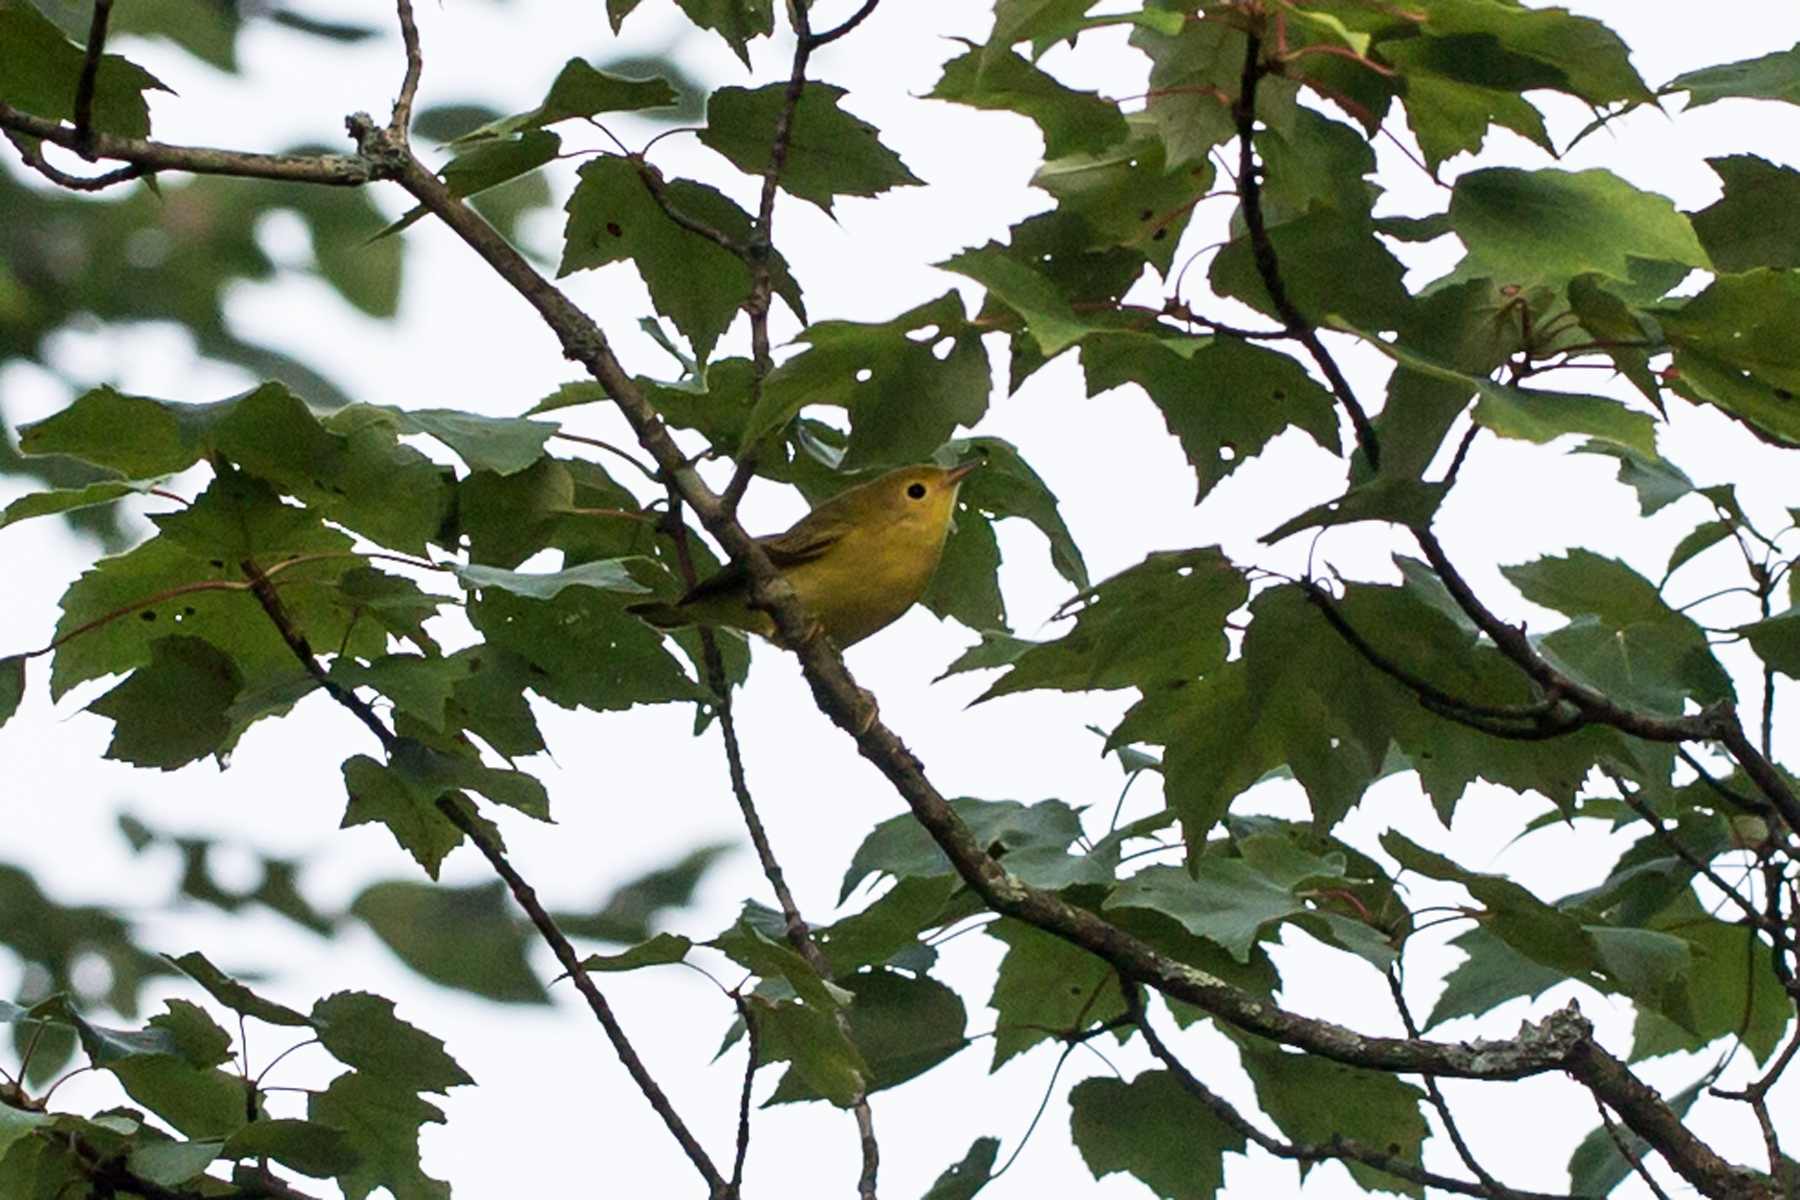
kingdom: Animalia
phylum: Chordata
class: Aves
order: Passeriformes
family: Parulidae
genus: Setophaga
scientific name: Setophaga petechia
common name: Yellow warbler
